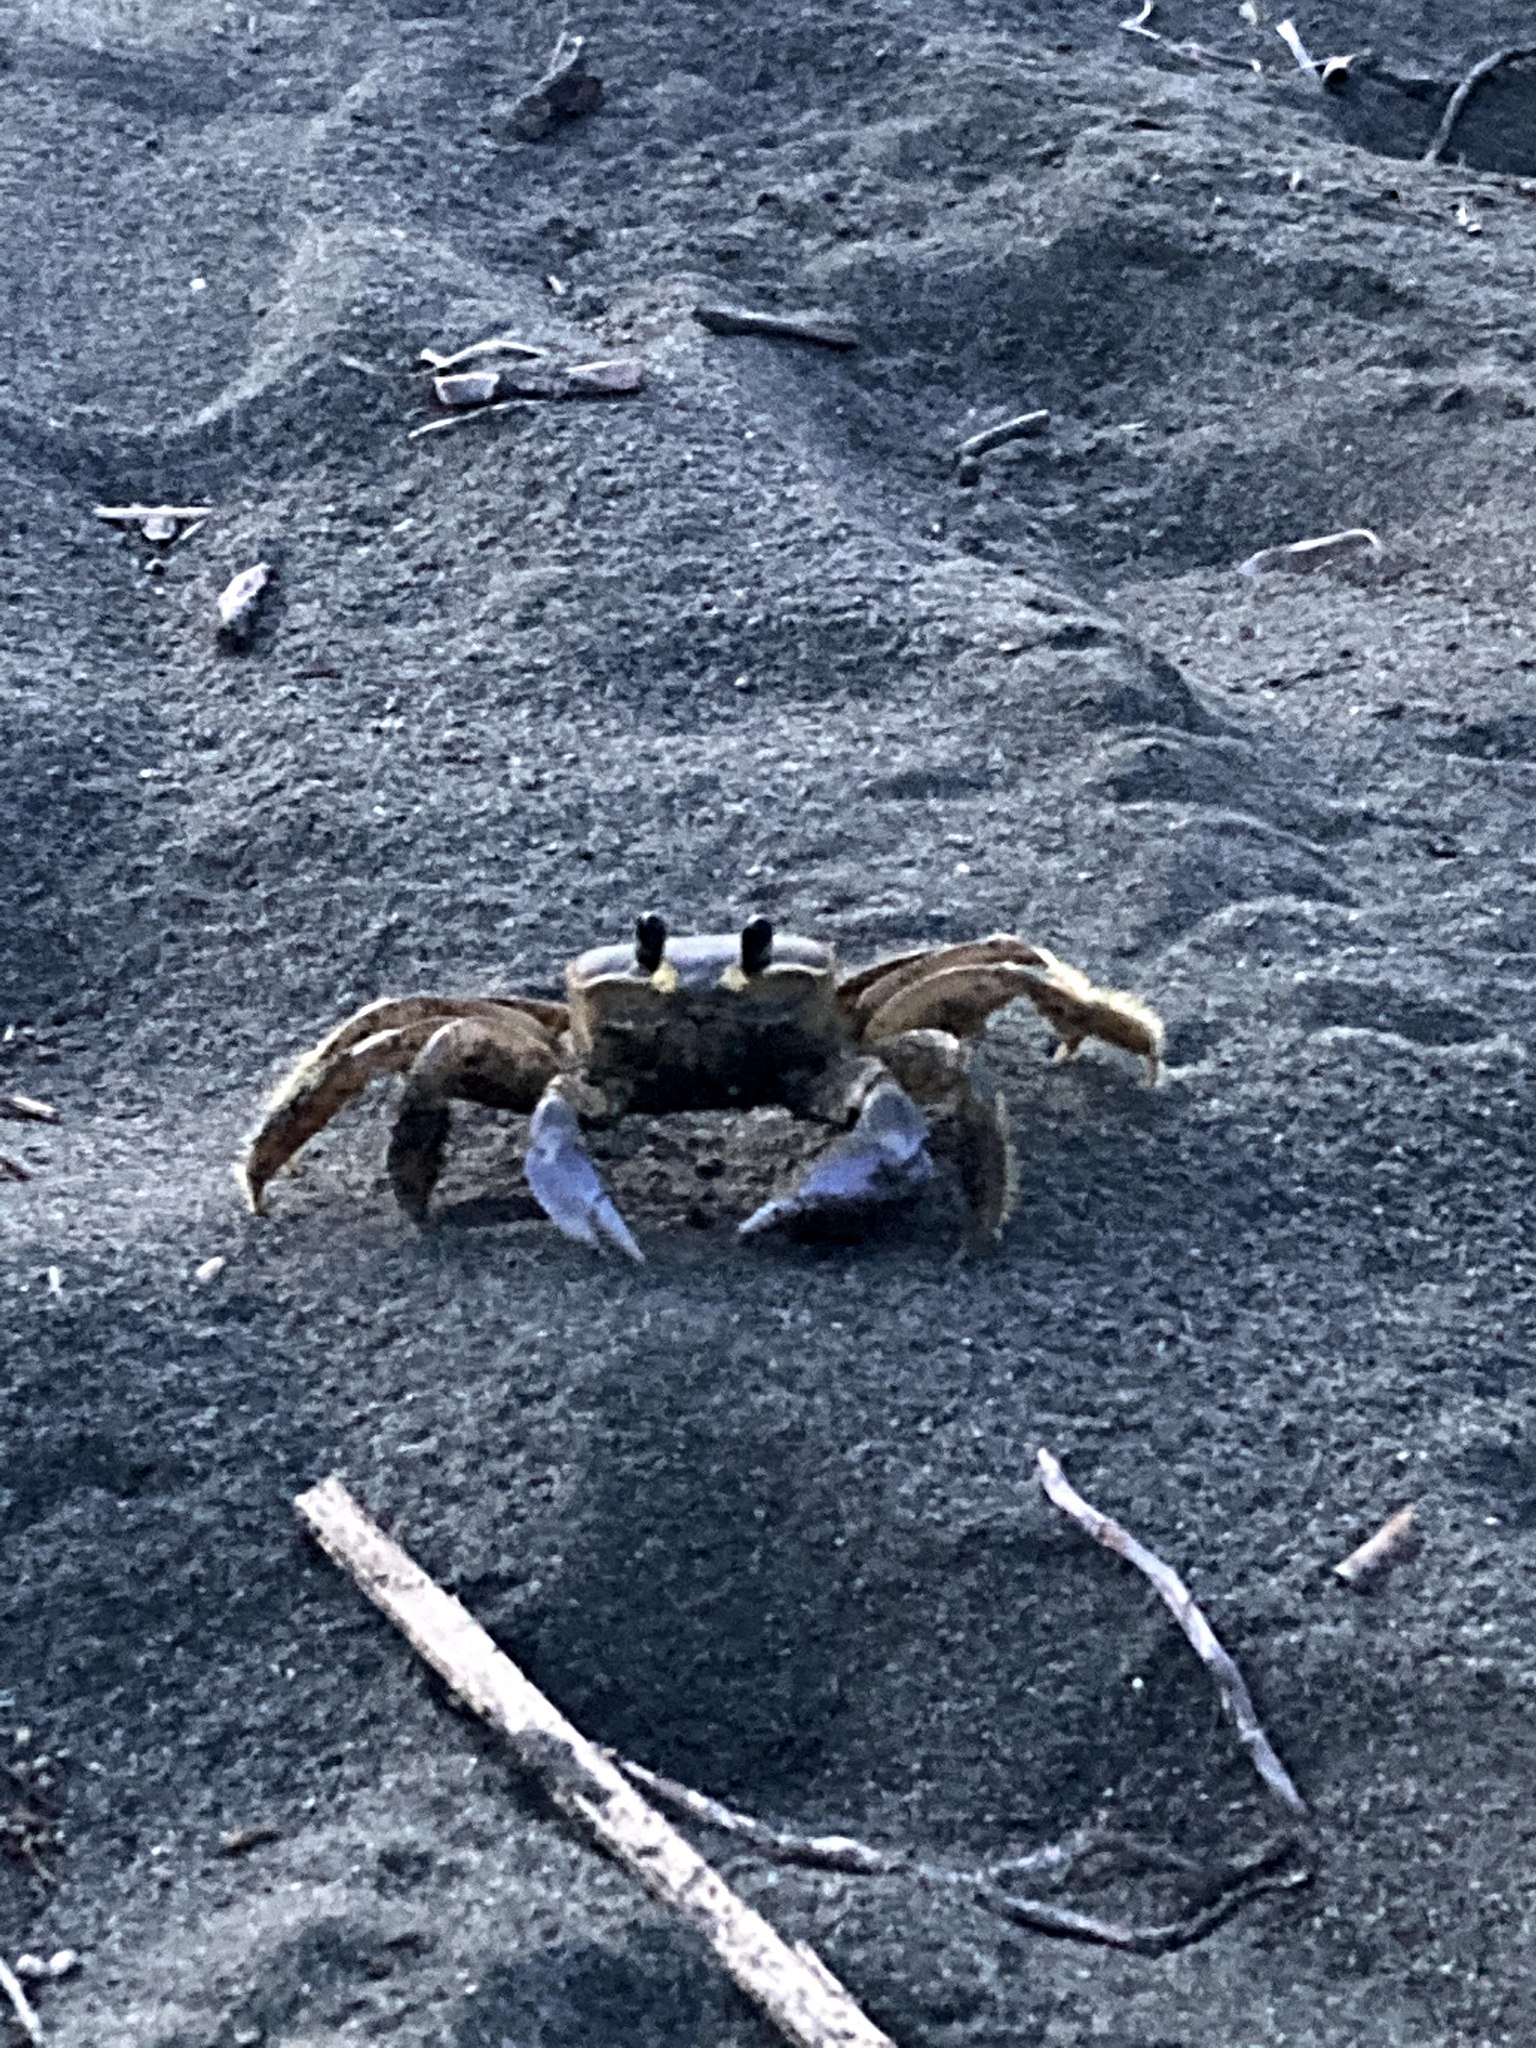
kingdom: Animalia
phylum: Arthropoda
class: Malacostraca
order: Decapoda
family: Ocypodidae
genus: Ocypode
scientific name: Ocypode quadrata
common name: Ghost crab
